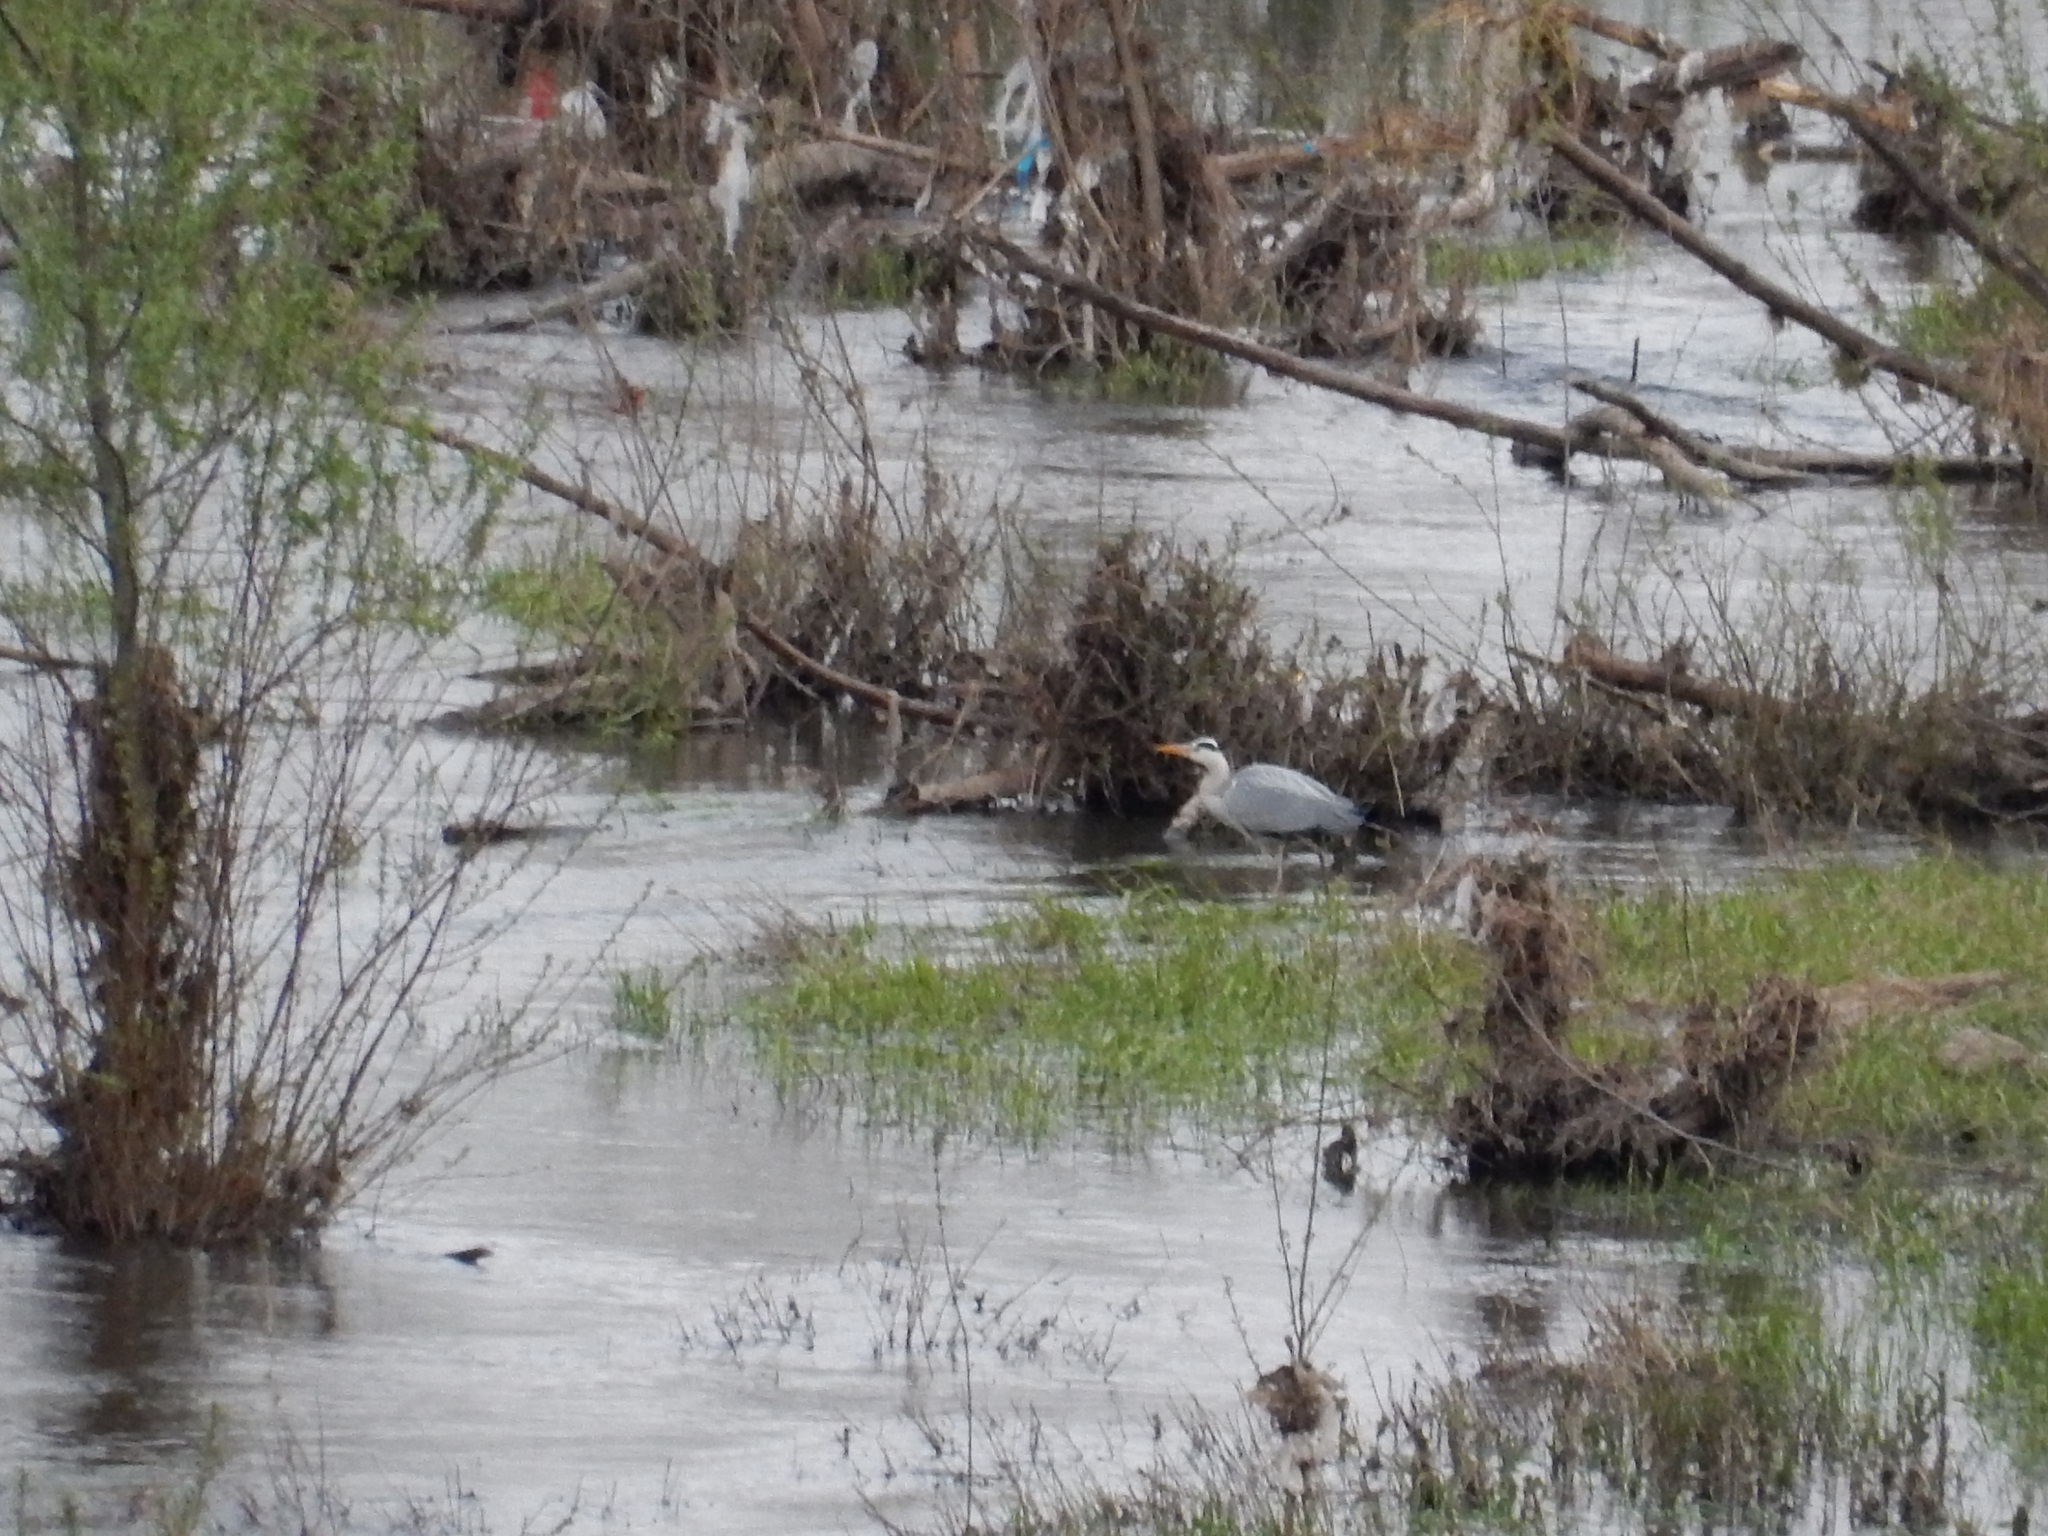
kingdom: Animalia
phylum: Chordata
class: Aves
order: Pelecaniformes
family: Ardeidae
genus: Ardea
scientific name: Ardea cinerea
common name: Grey heron
